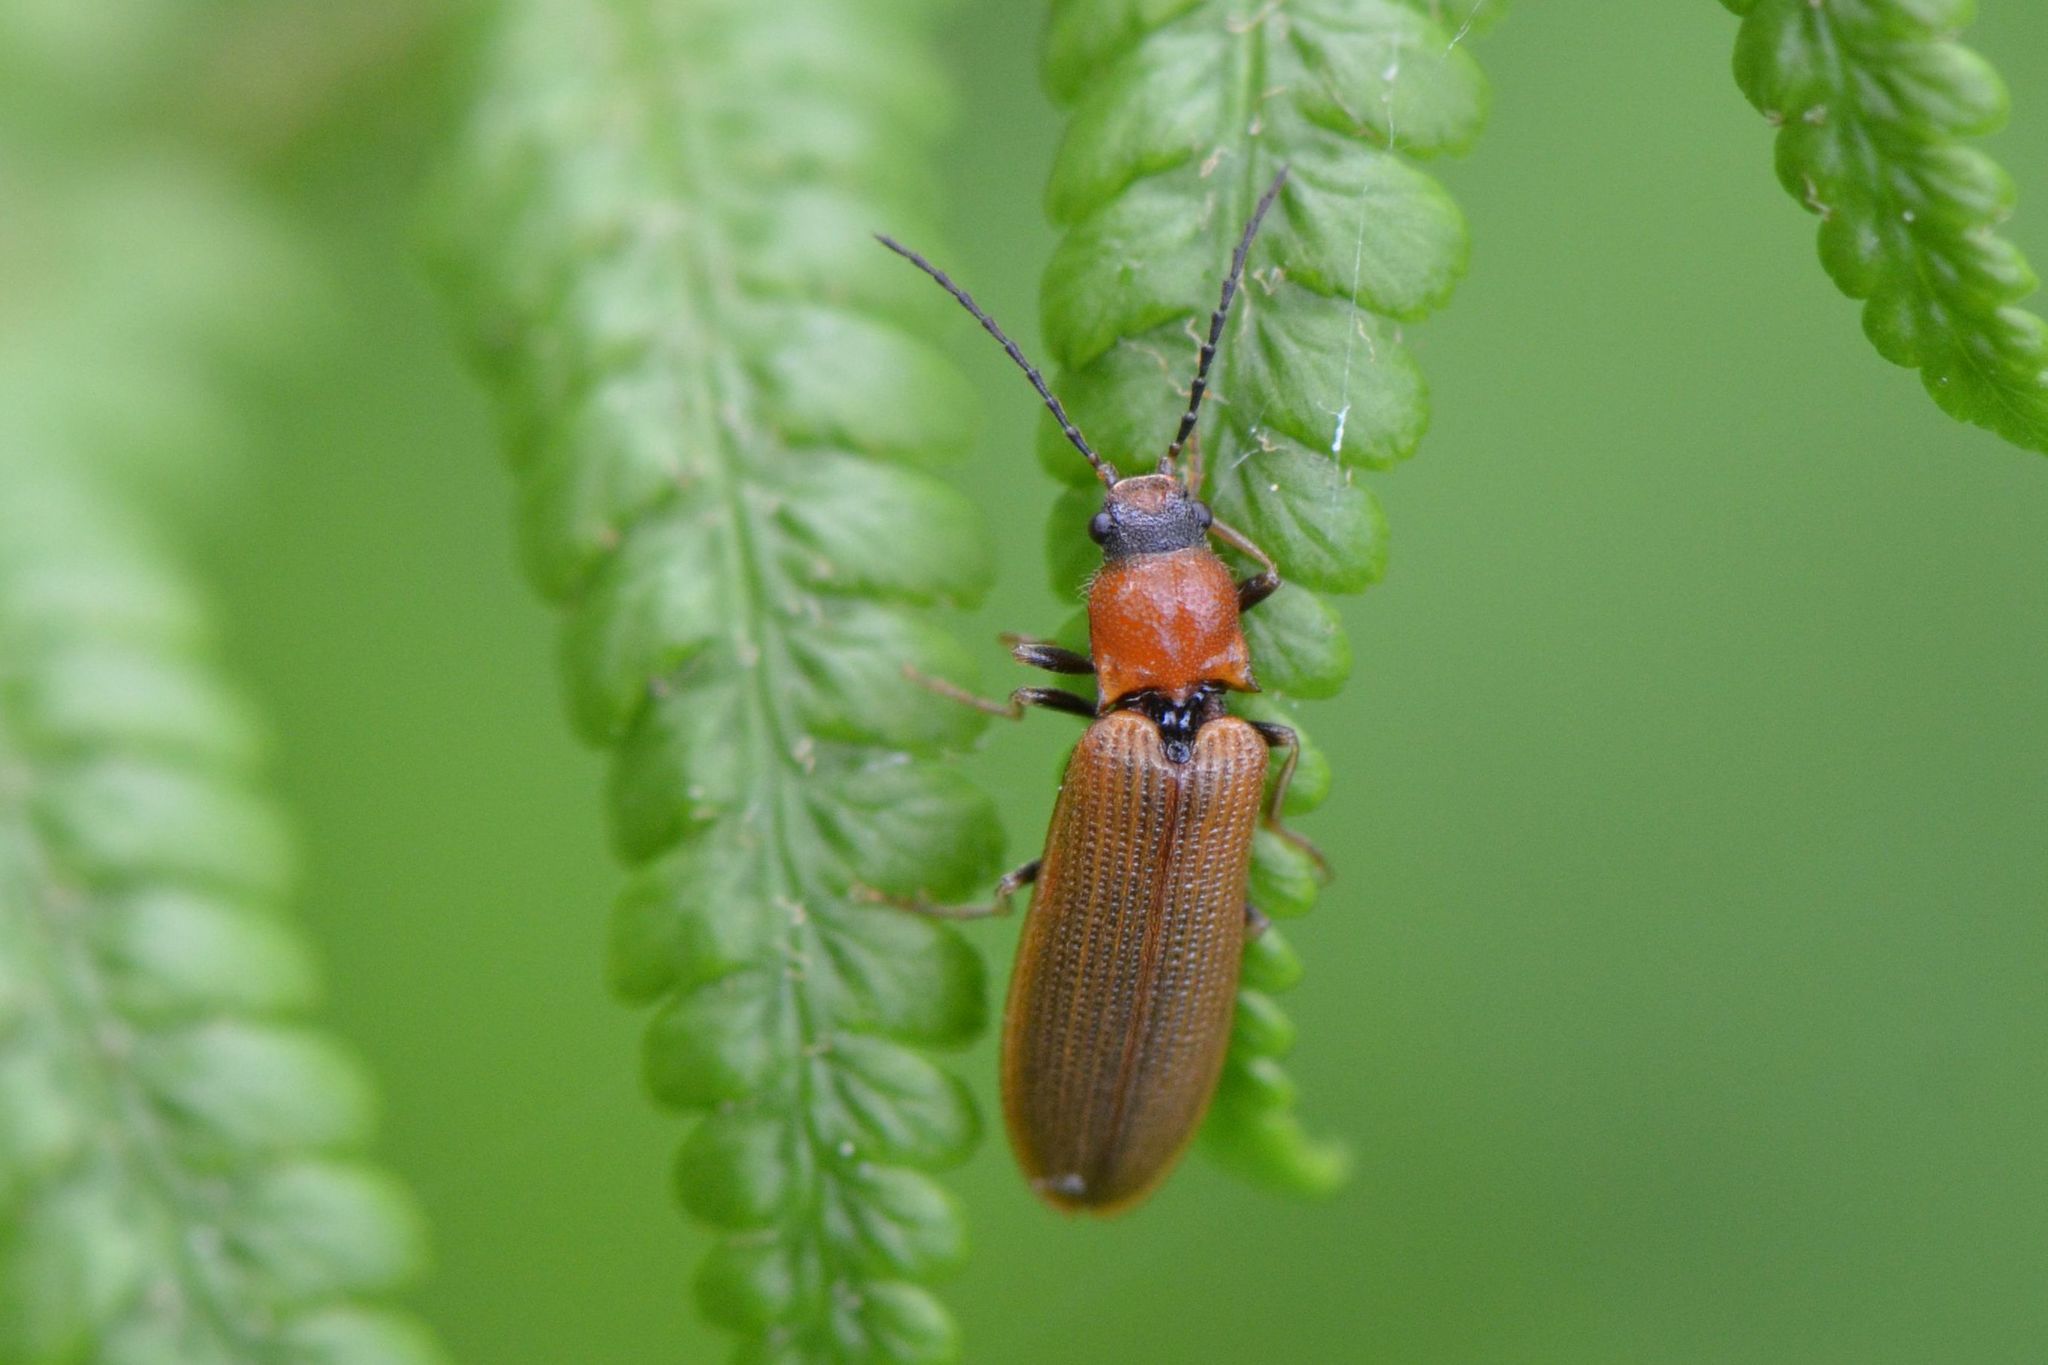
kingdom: Animalia
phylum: Arthropoda
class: Insecta
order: Coleoptera
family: Elateridae
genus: Denticollis
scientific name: Denticollis linearis
